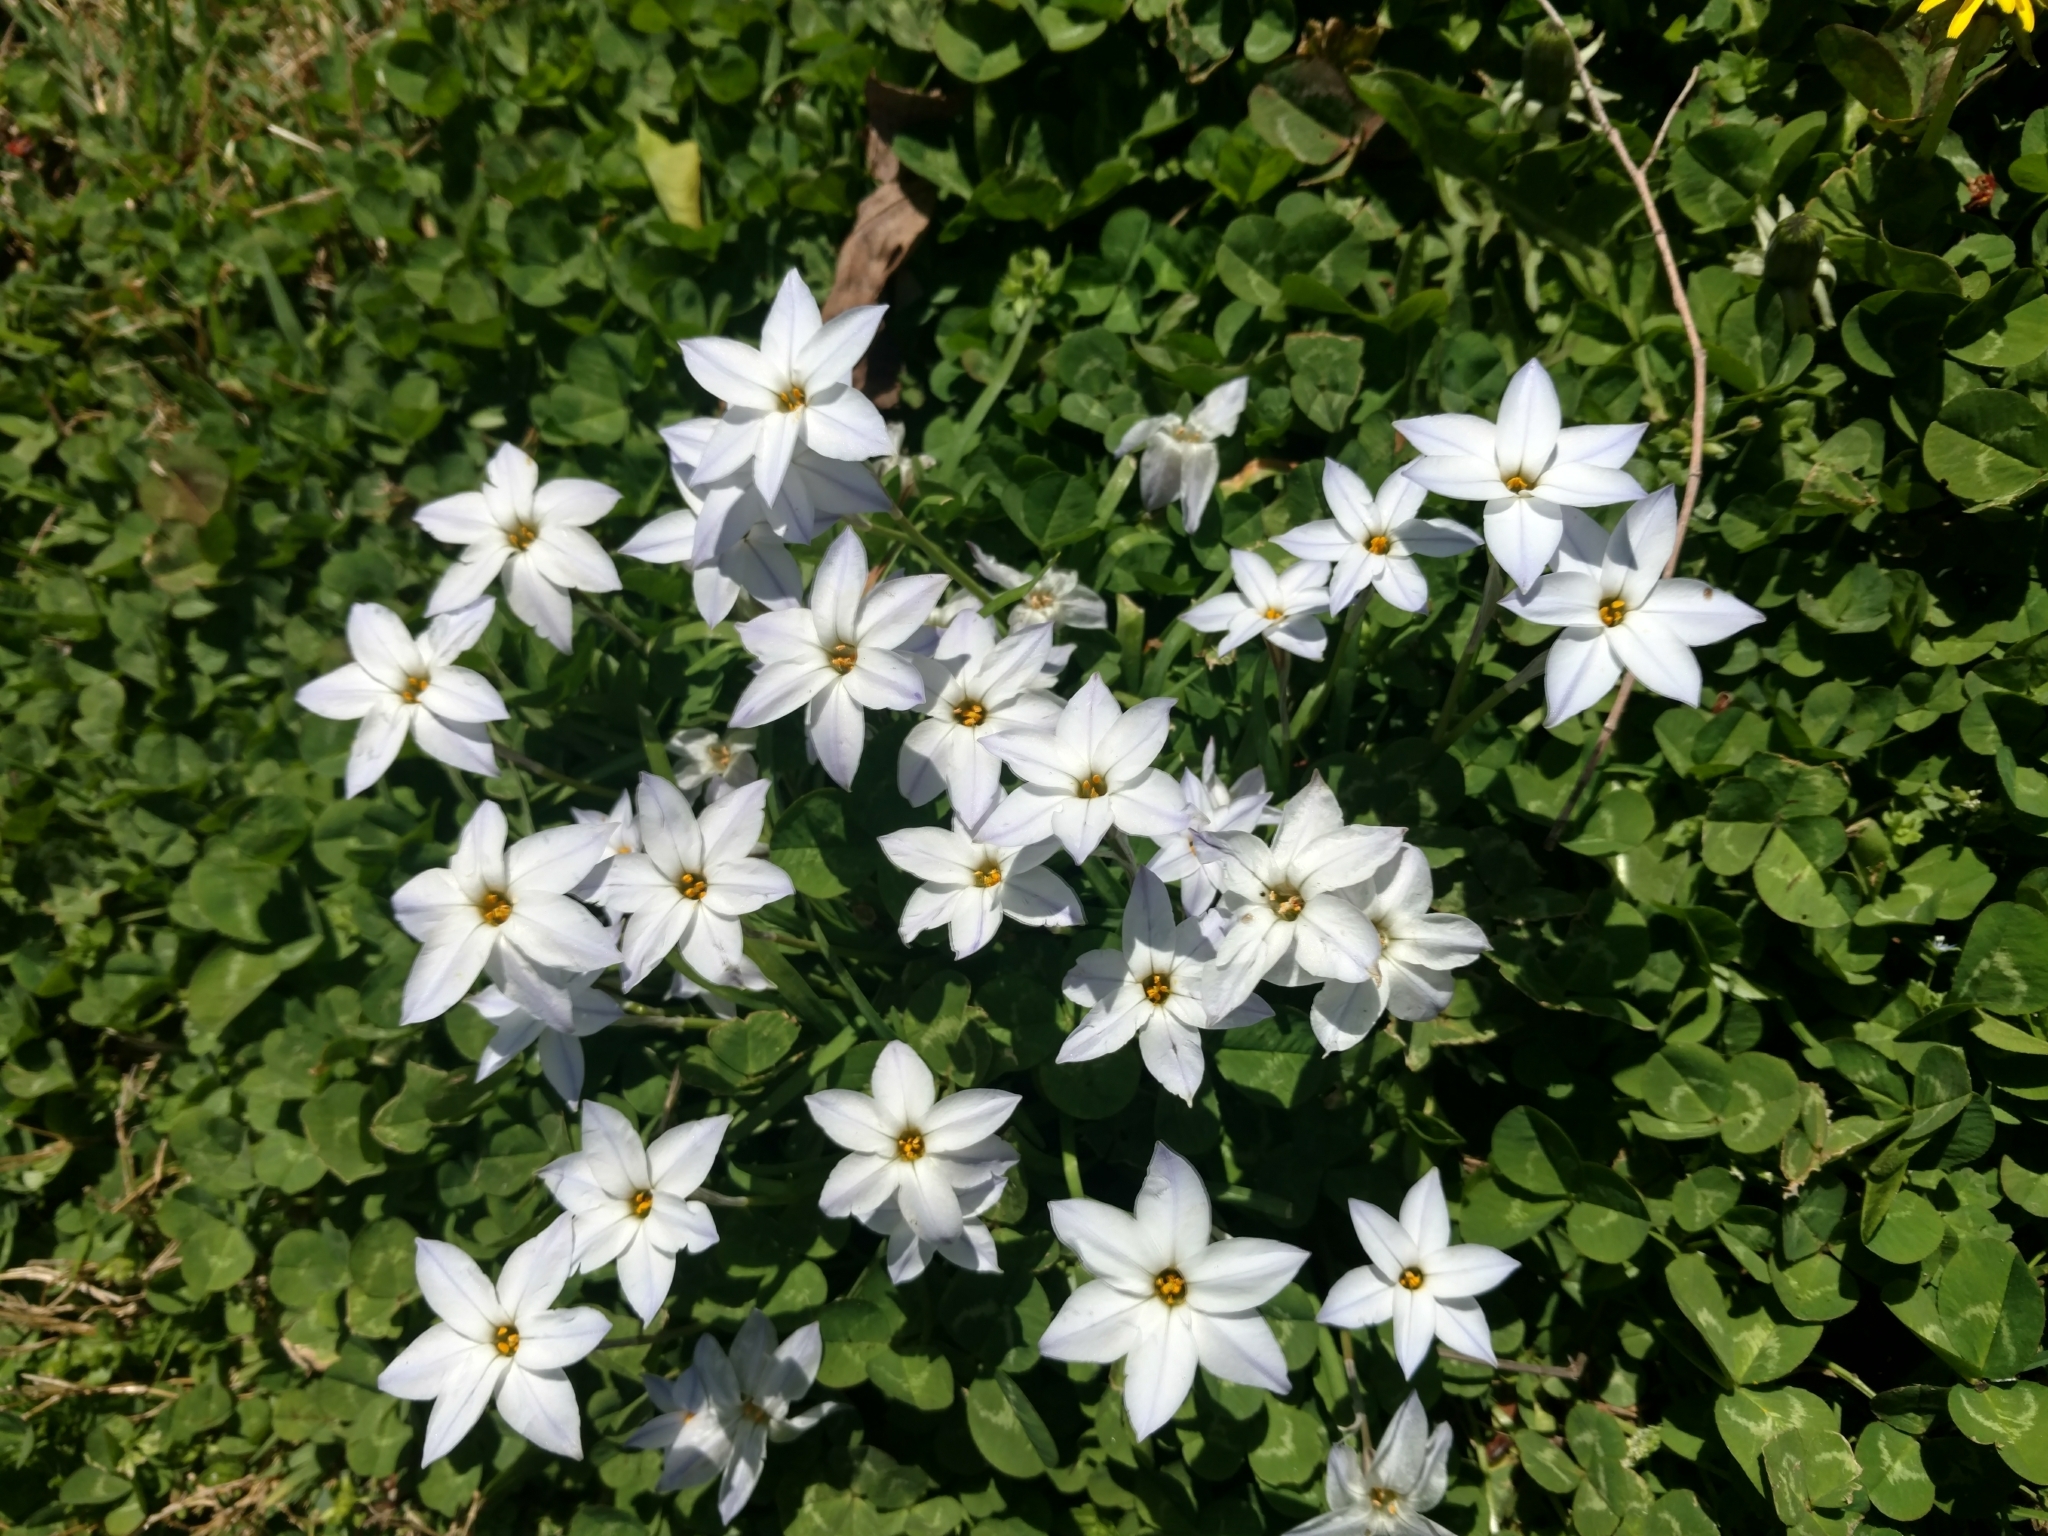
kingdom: Plantae
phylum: Tracheophyta
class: Liliopsida
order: Asparagales
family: Amaryllidaceae
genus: Ipheion
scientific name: Ipheion uniflorum
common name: Spring starflower
